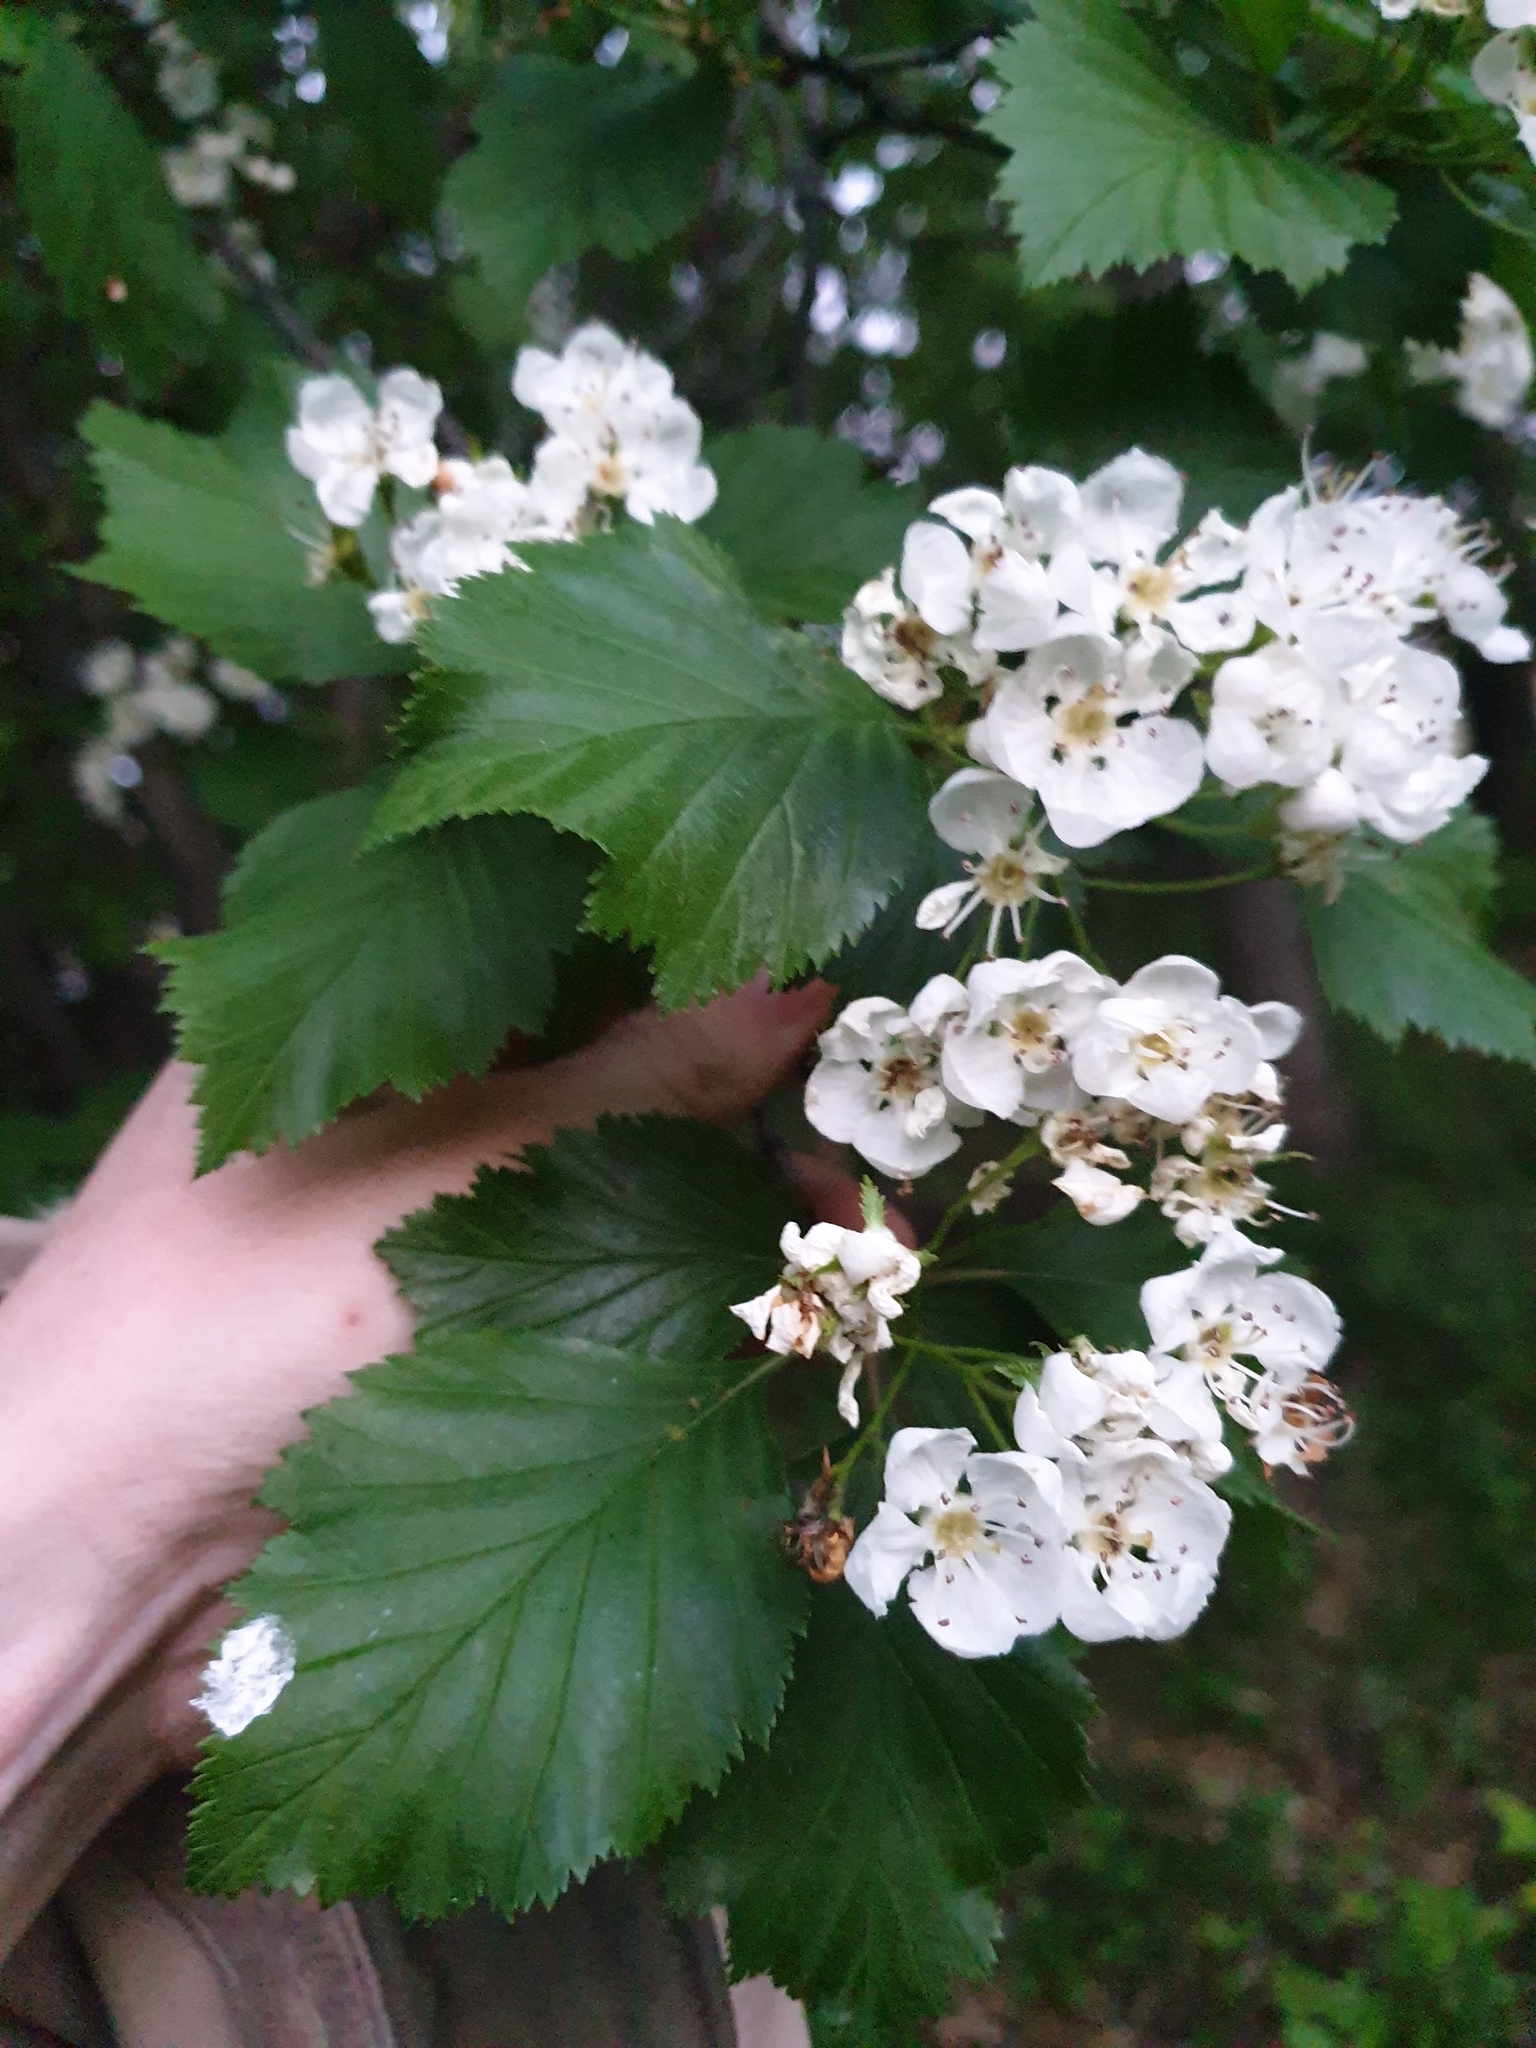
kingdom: Plantae
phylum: Tracheophyta
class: Magnoliopsida
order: Rosales
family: Rosaceae
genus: Crataegus
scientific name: Crataegus macracantha
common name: Large-thorn hawthorn
